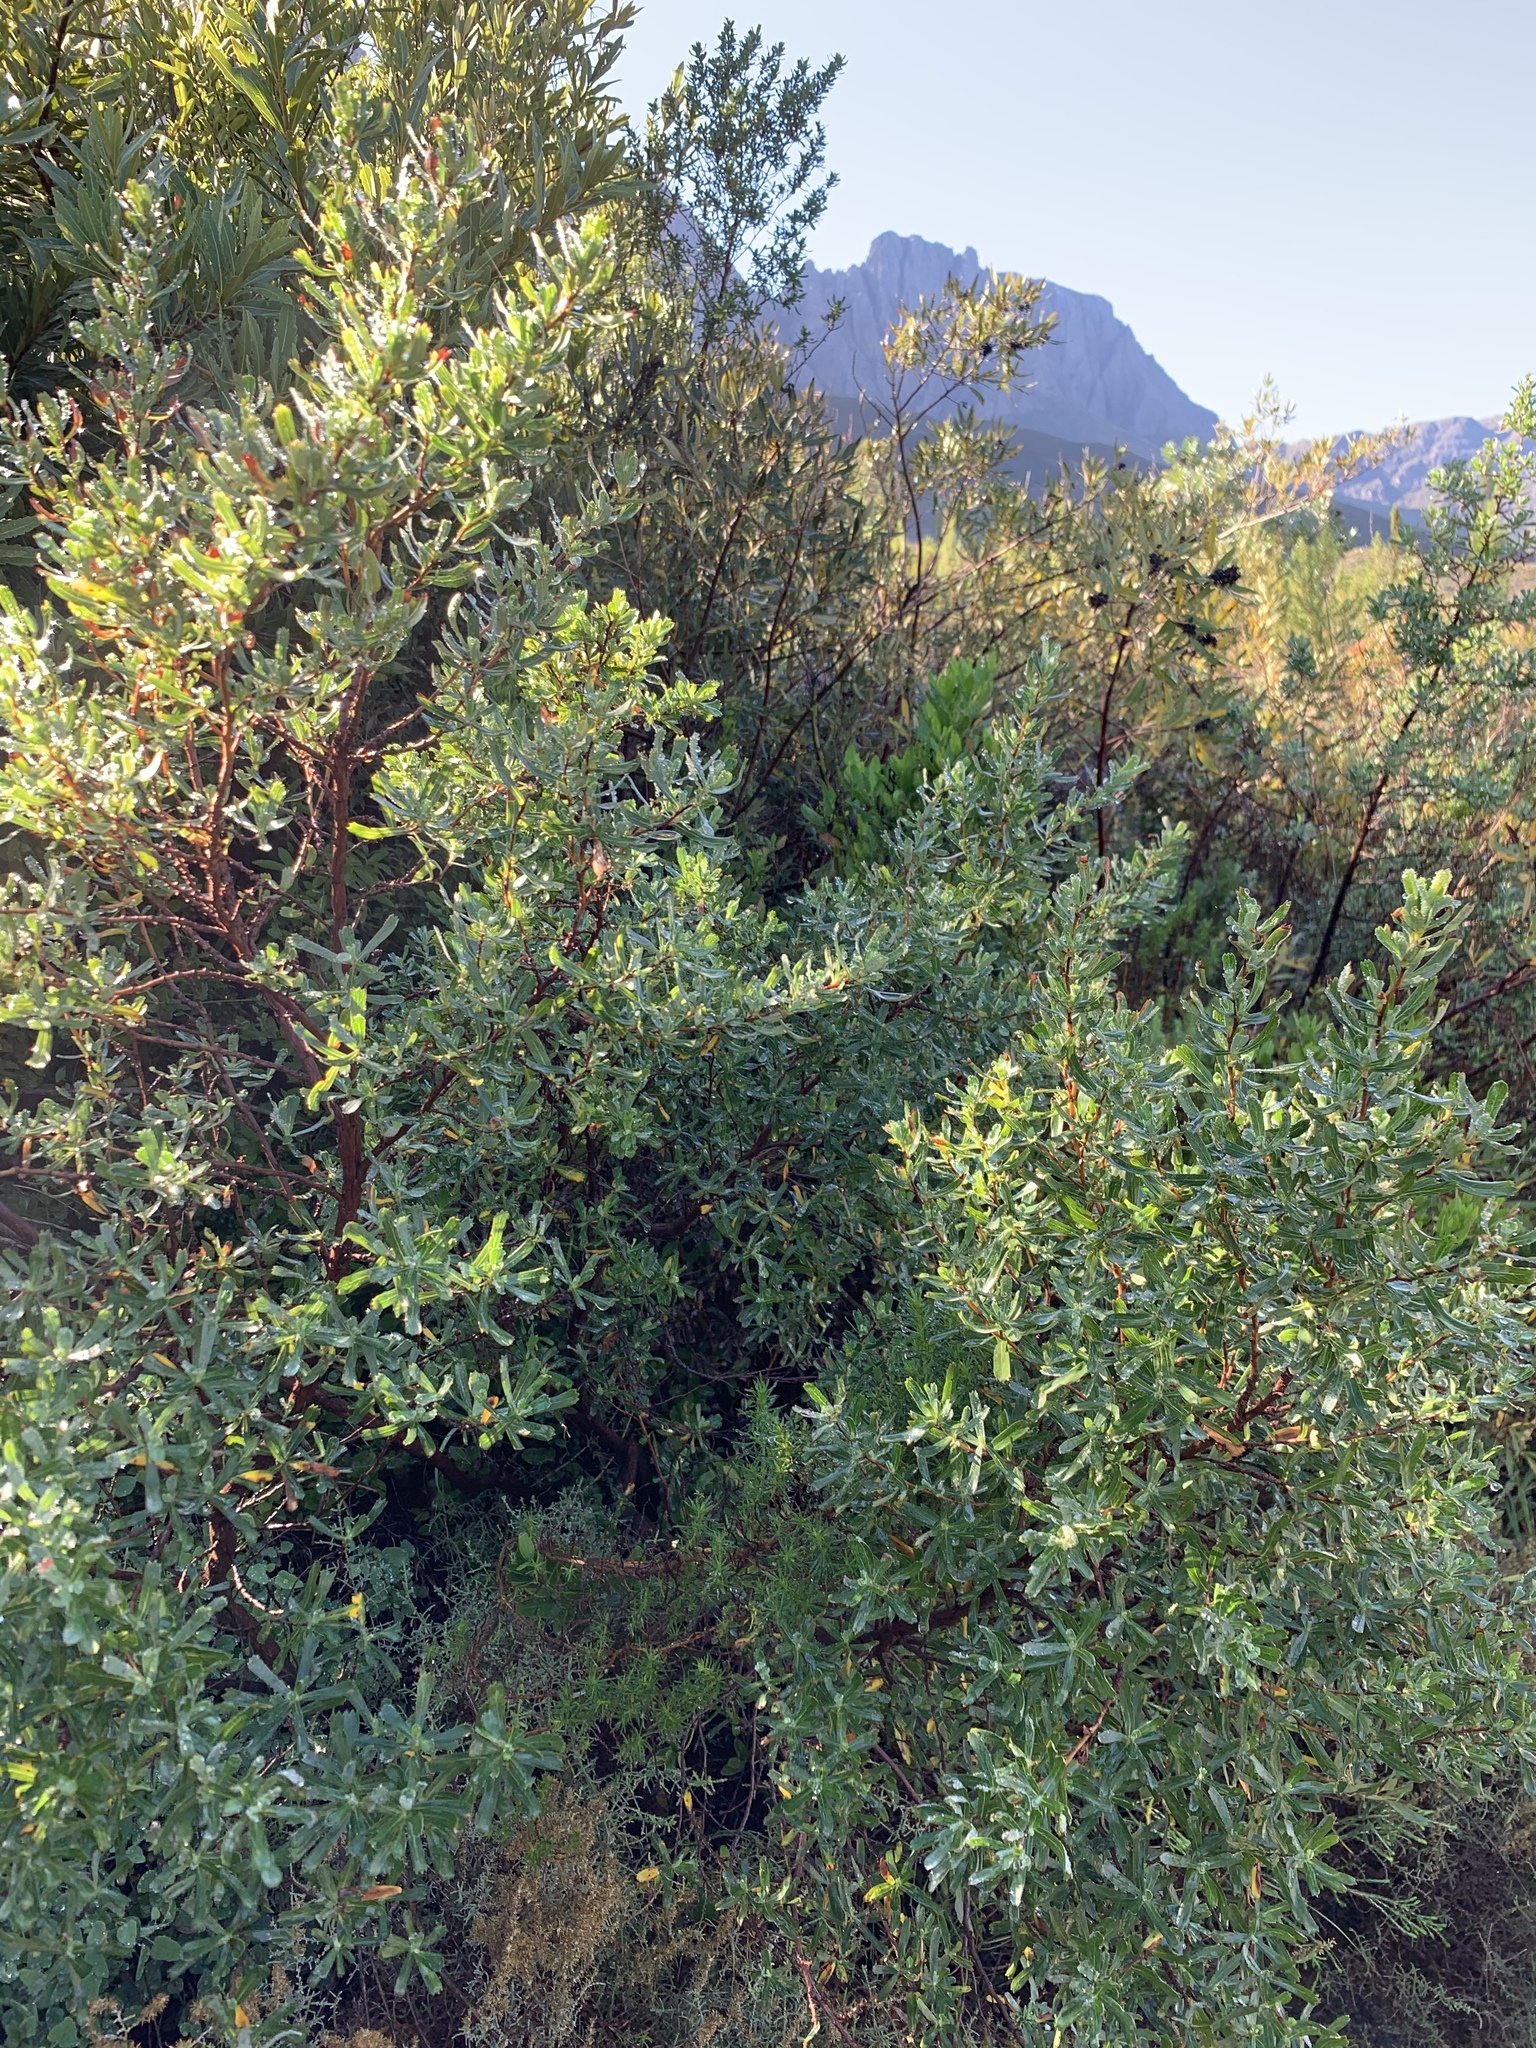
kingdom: Plantae
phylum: Tracheophyta
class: Magnoliopsida
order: Rosales
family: Rosaceae
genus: Cliffortia
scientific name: Cliffortia cuneata
